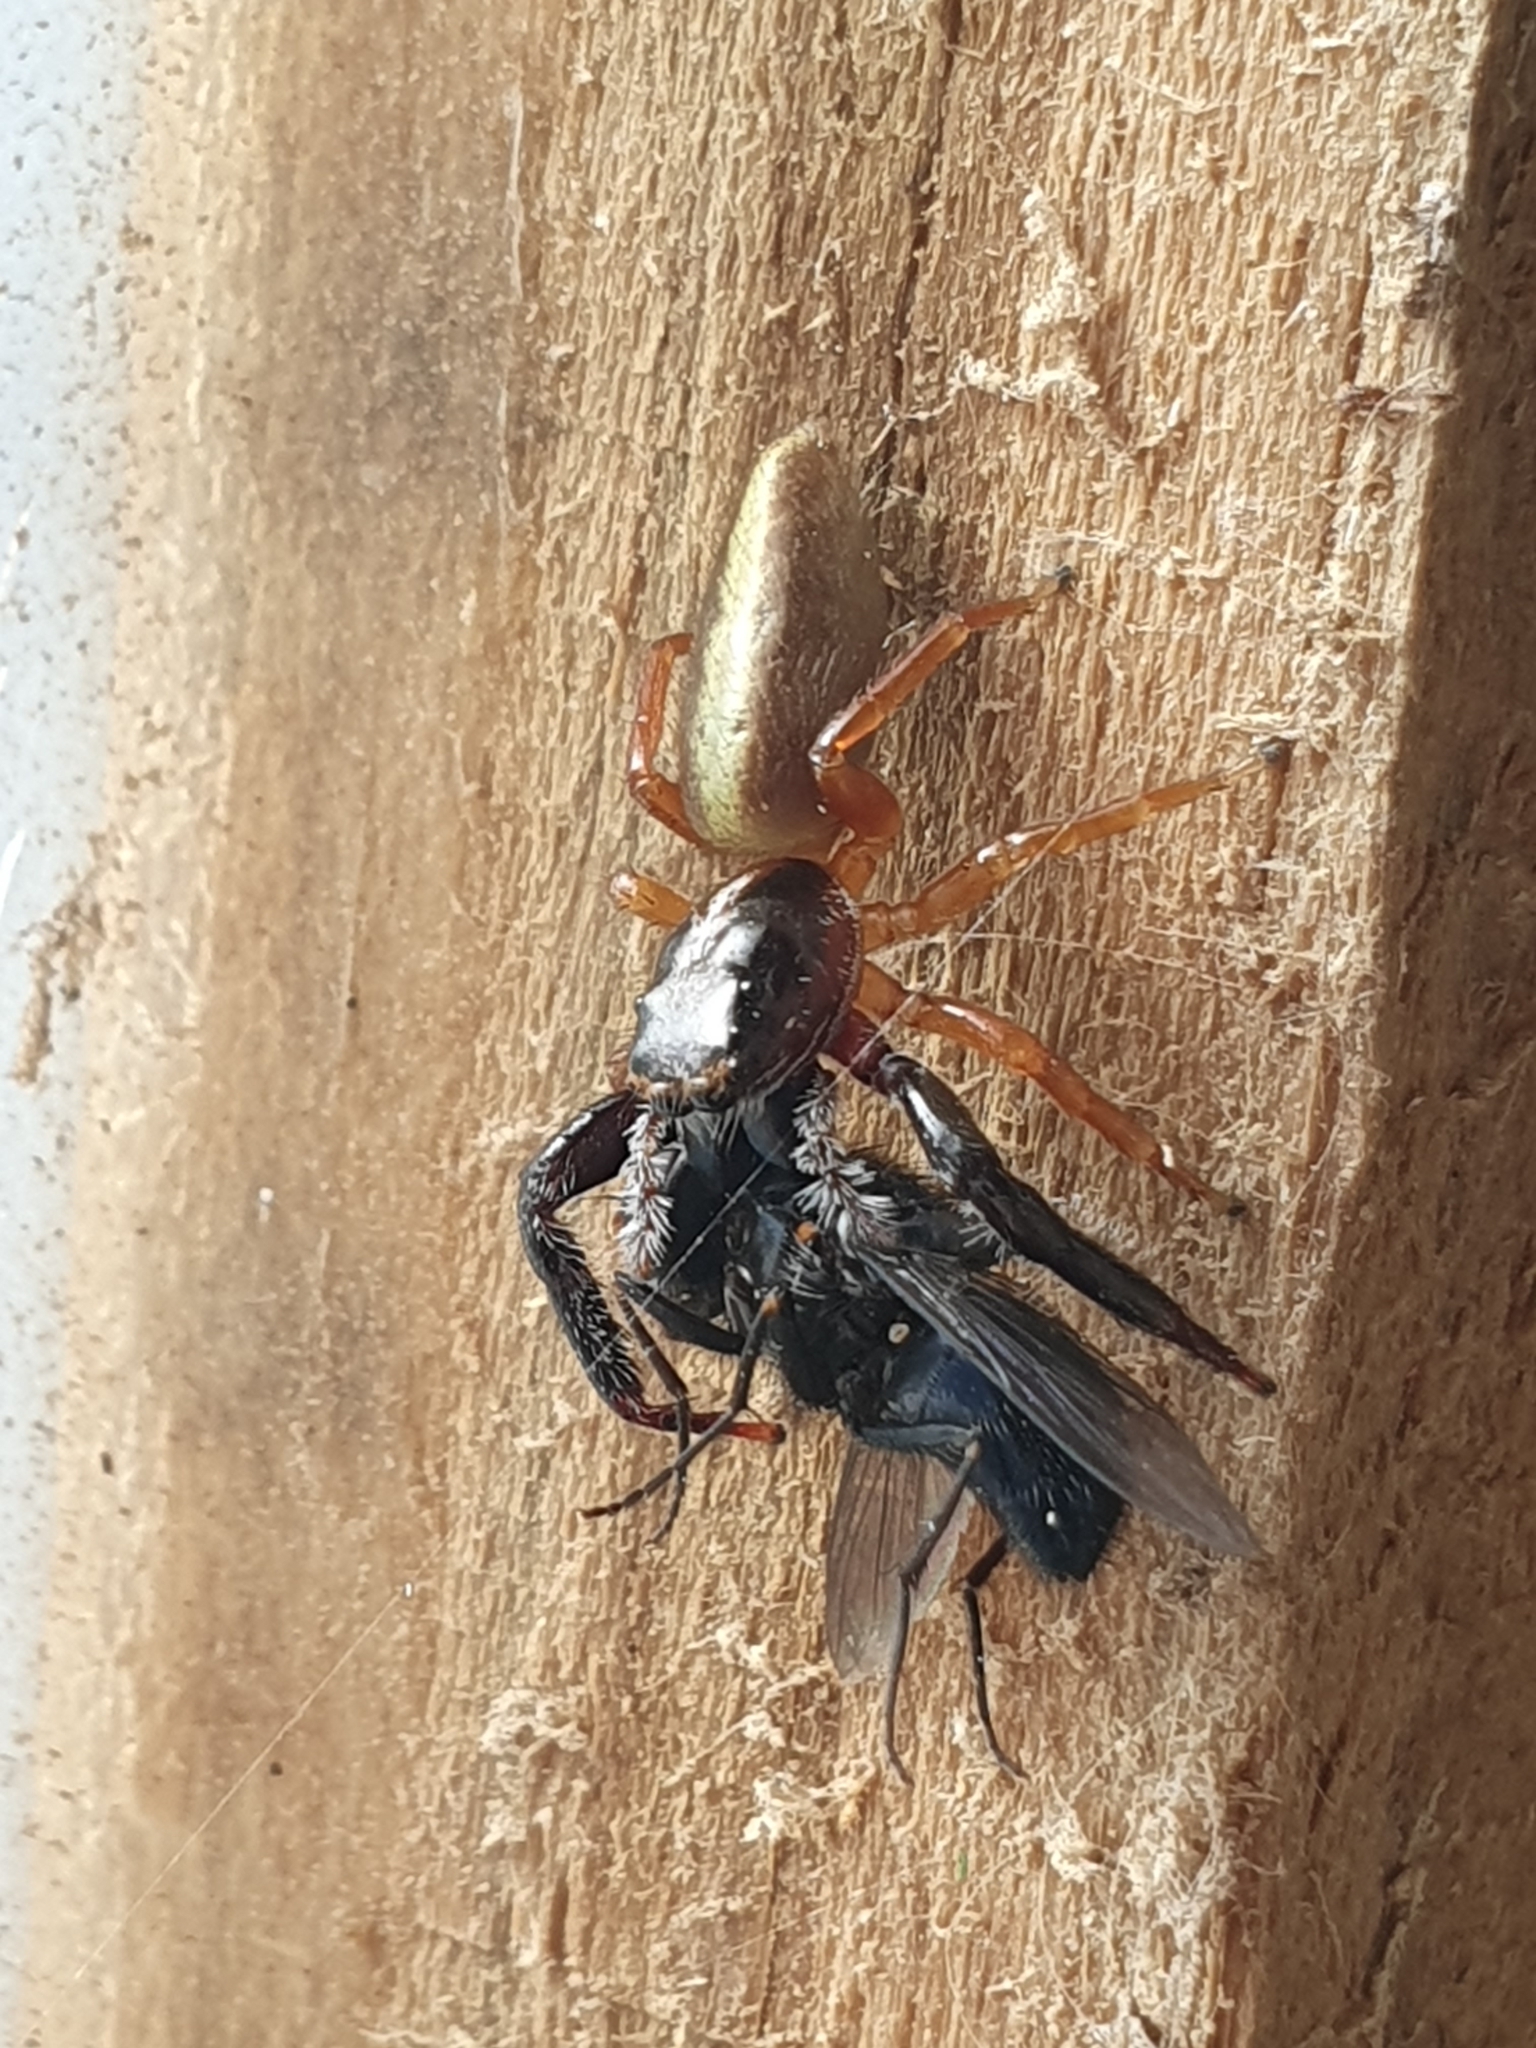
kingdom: Animalia
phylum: Arthropoda
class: Arachnida
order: Araneae
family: Salticidae
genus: Trite
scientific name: Trite planiceps
